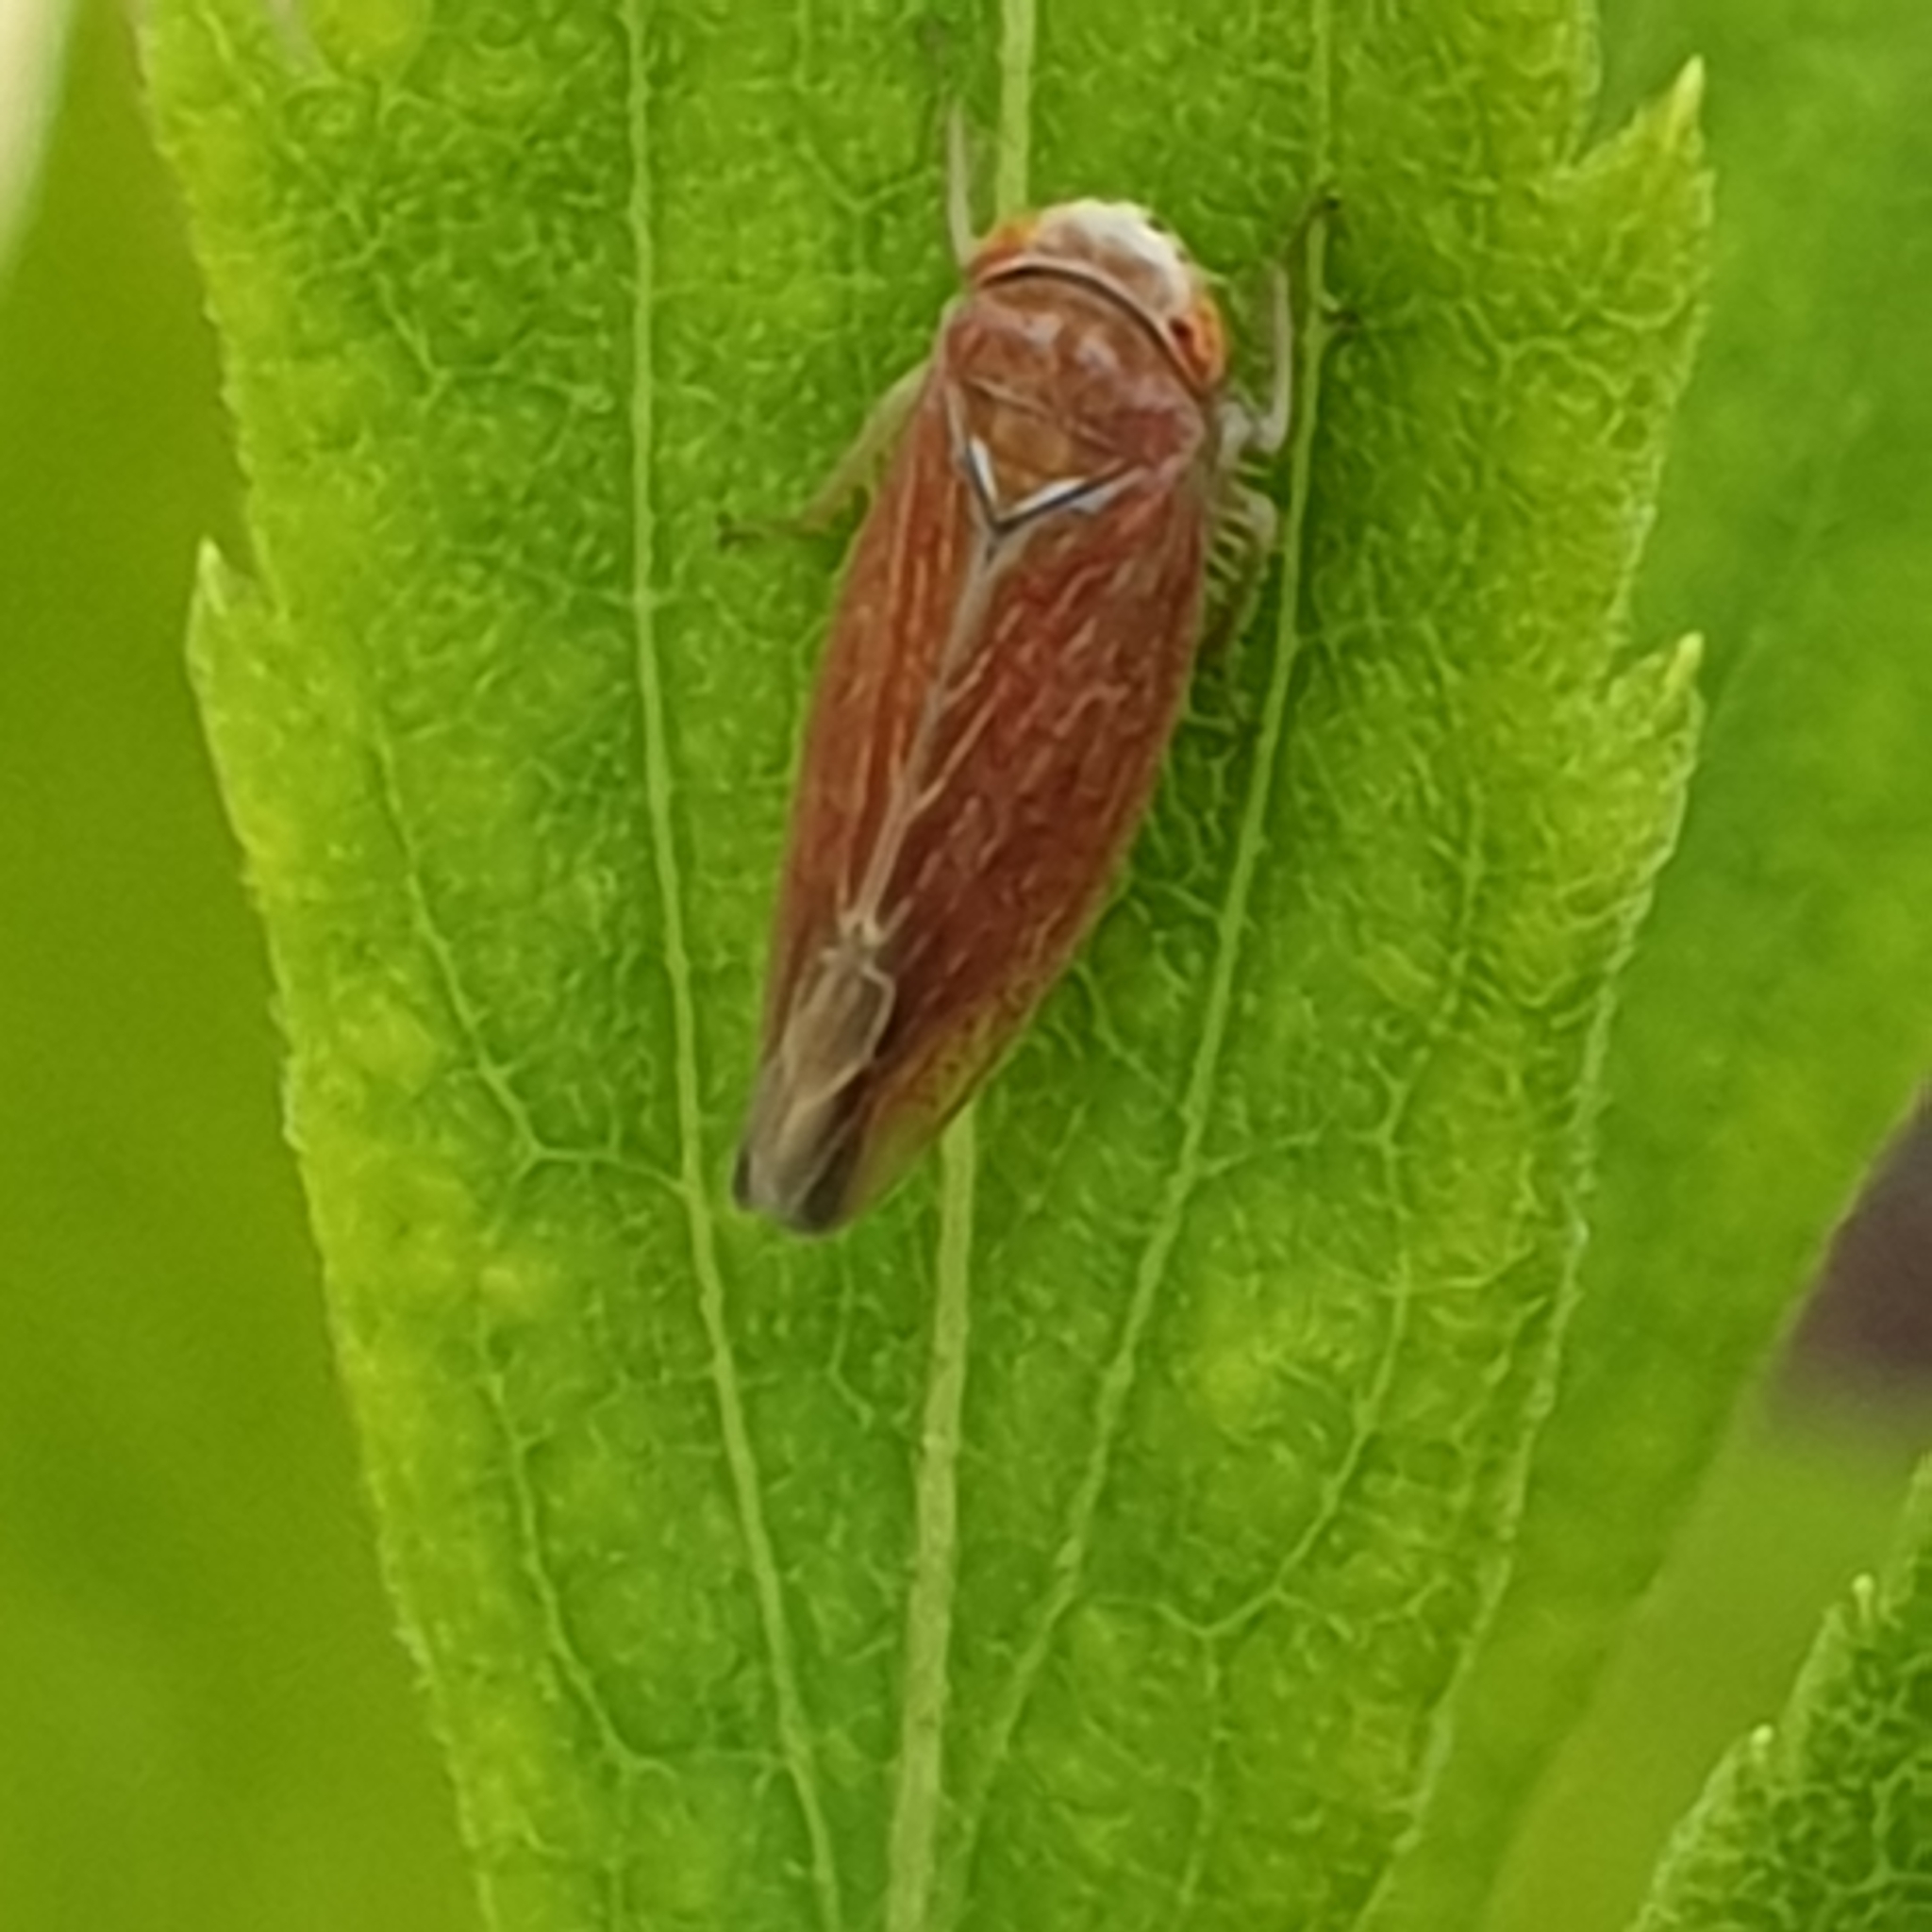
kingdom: Animalia
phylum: Arthropoda
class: Insecta
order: Hemiptera
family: Cicadellidae
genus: Idiodonus
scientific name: Idiodonus cruentatus
